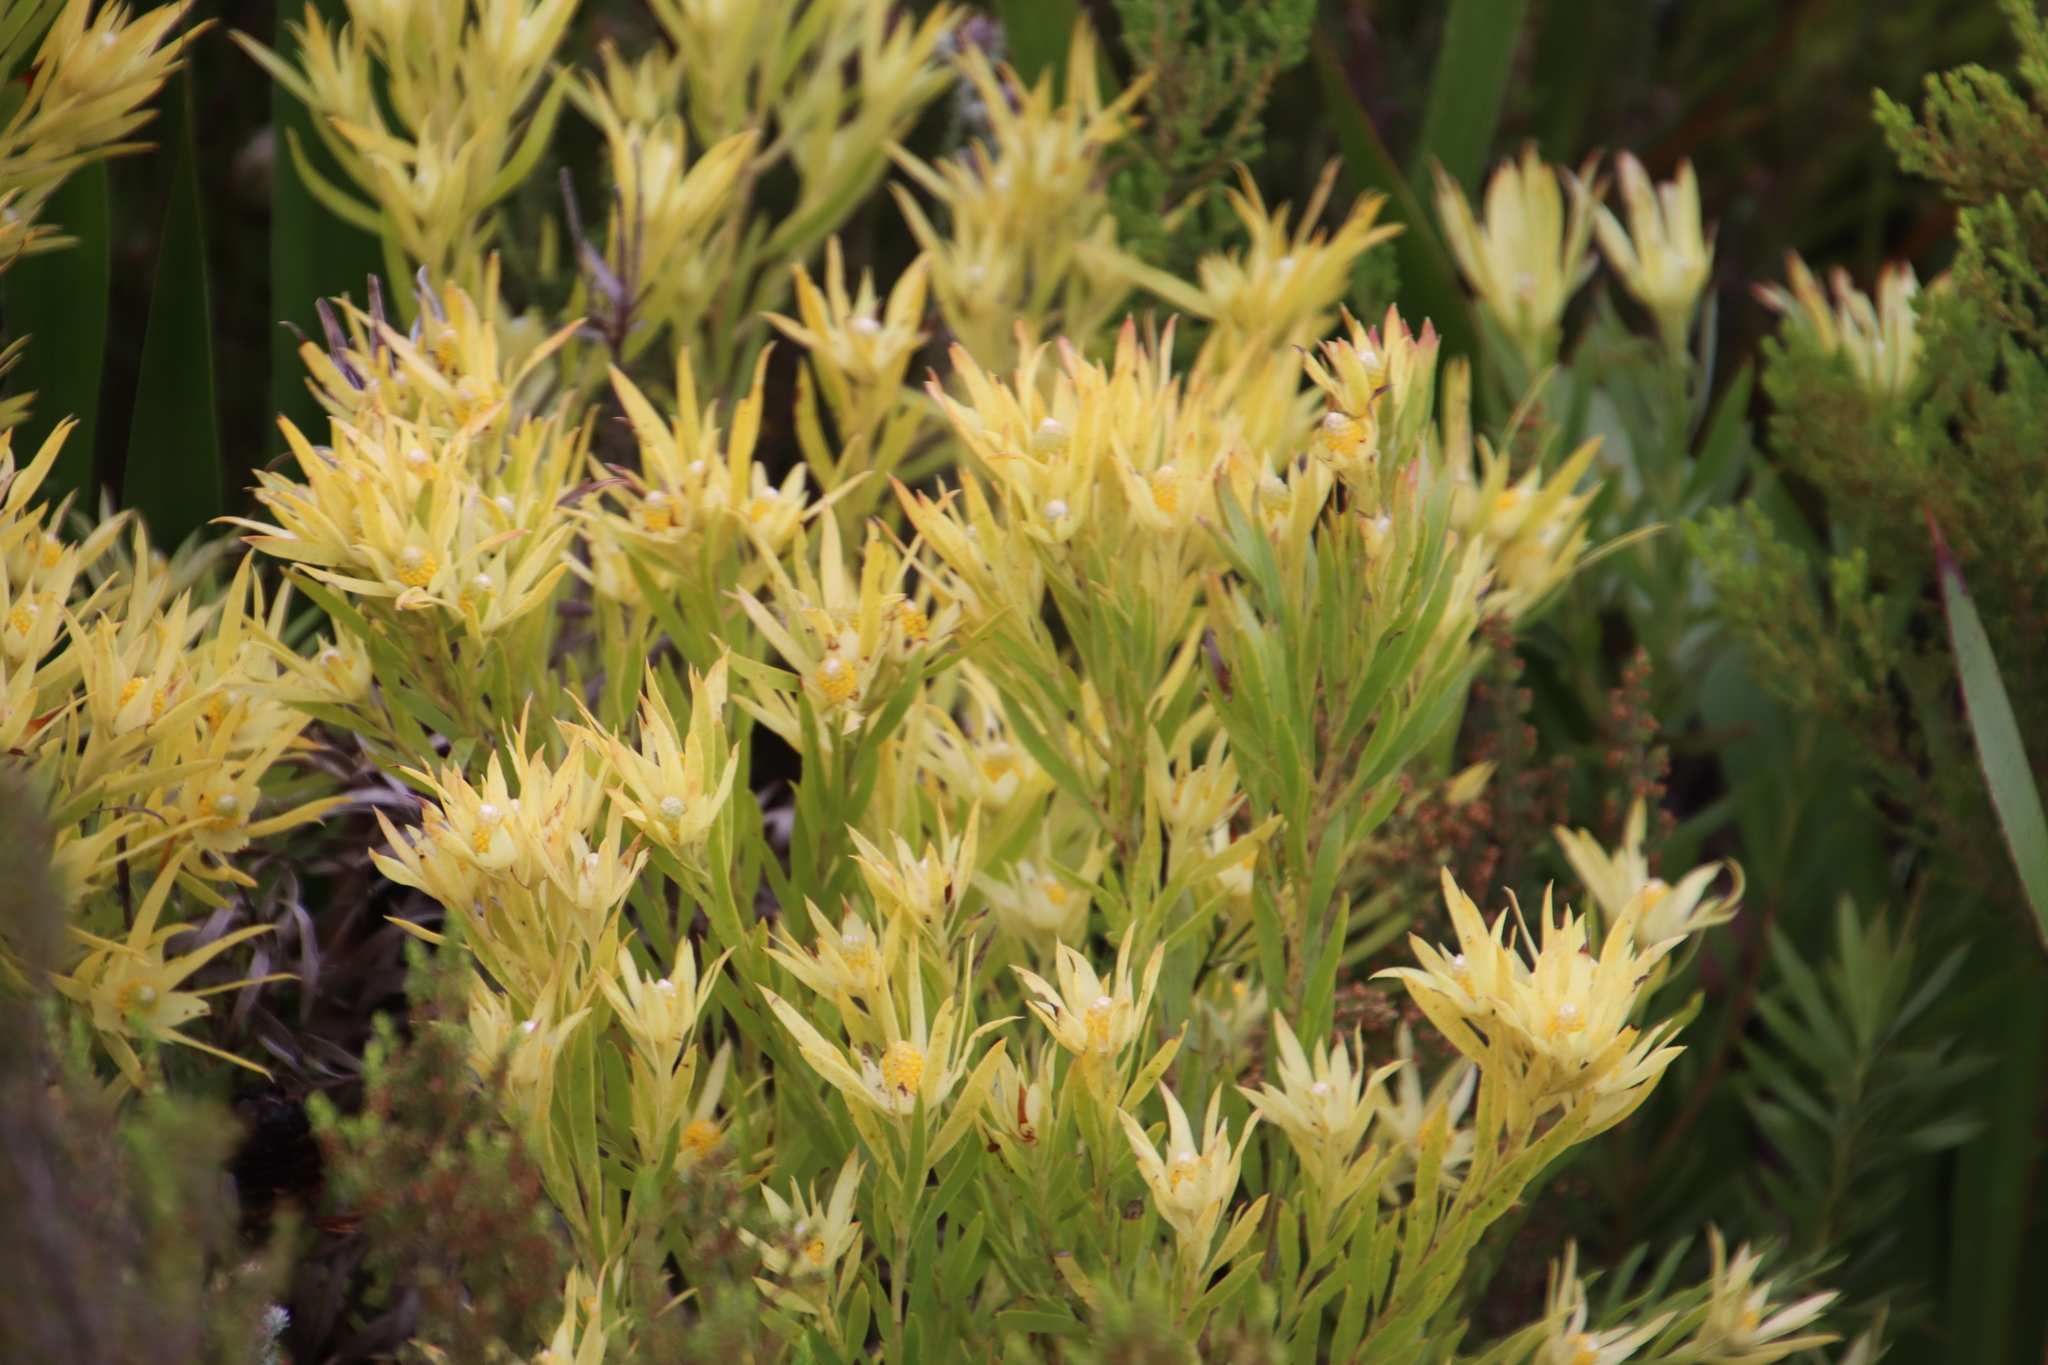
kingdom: Plantae
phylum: Tracheophyta
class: Magnoliopsida
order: Proteales
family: Proteaceae
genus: Leucadendron
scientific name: Leucadendron xanthoconus
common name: Sickle-leaf conebush
